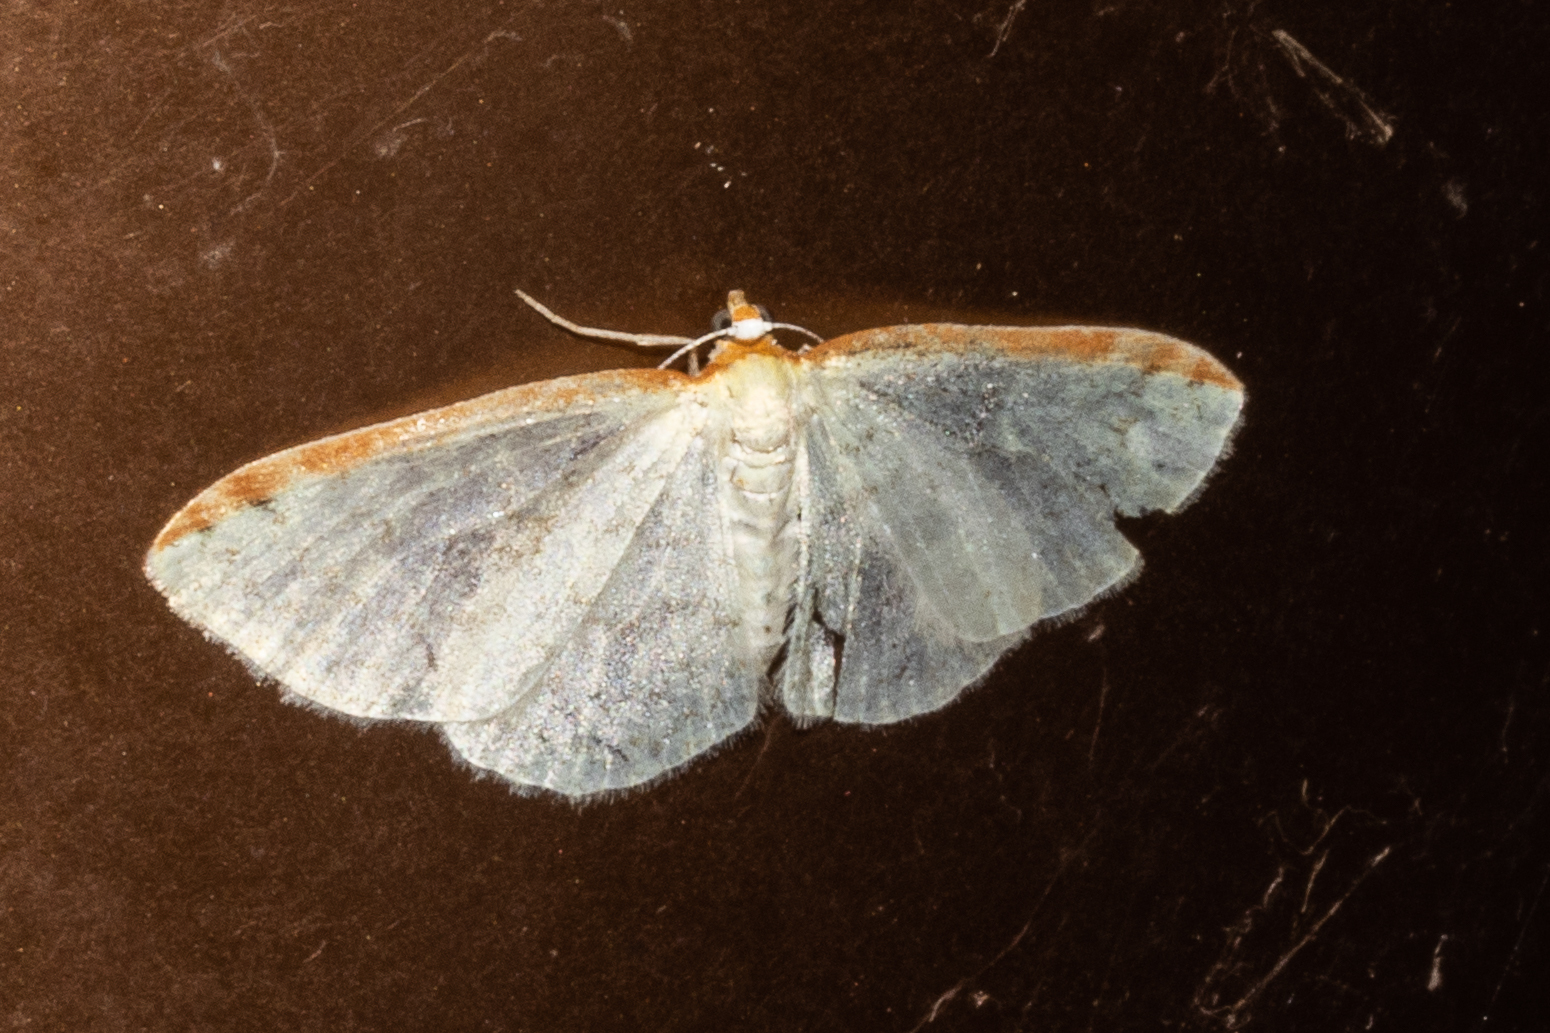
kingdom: Animalia
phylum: Arthropoda
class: Insecta
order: Lepidoptera
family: Geometridae
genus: Epiphryne
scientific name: Epiphryne undosata
